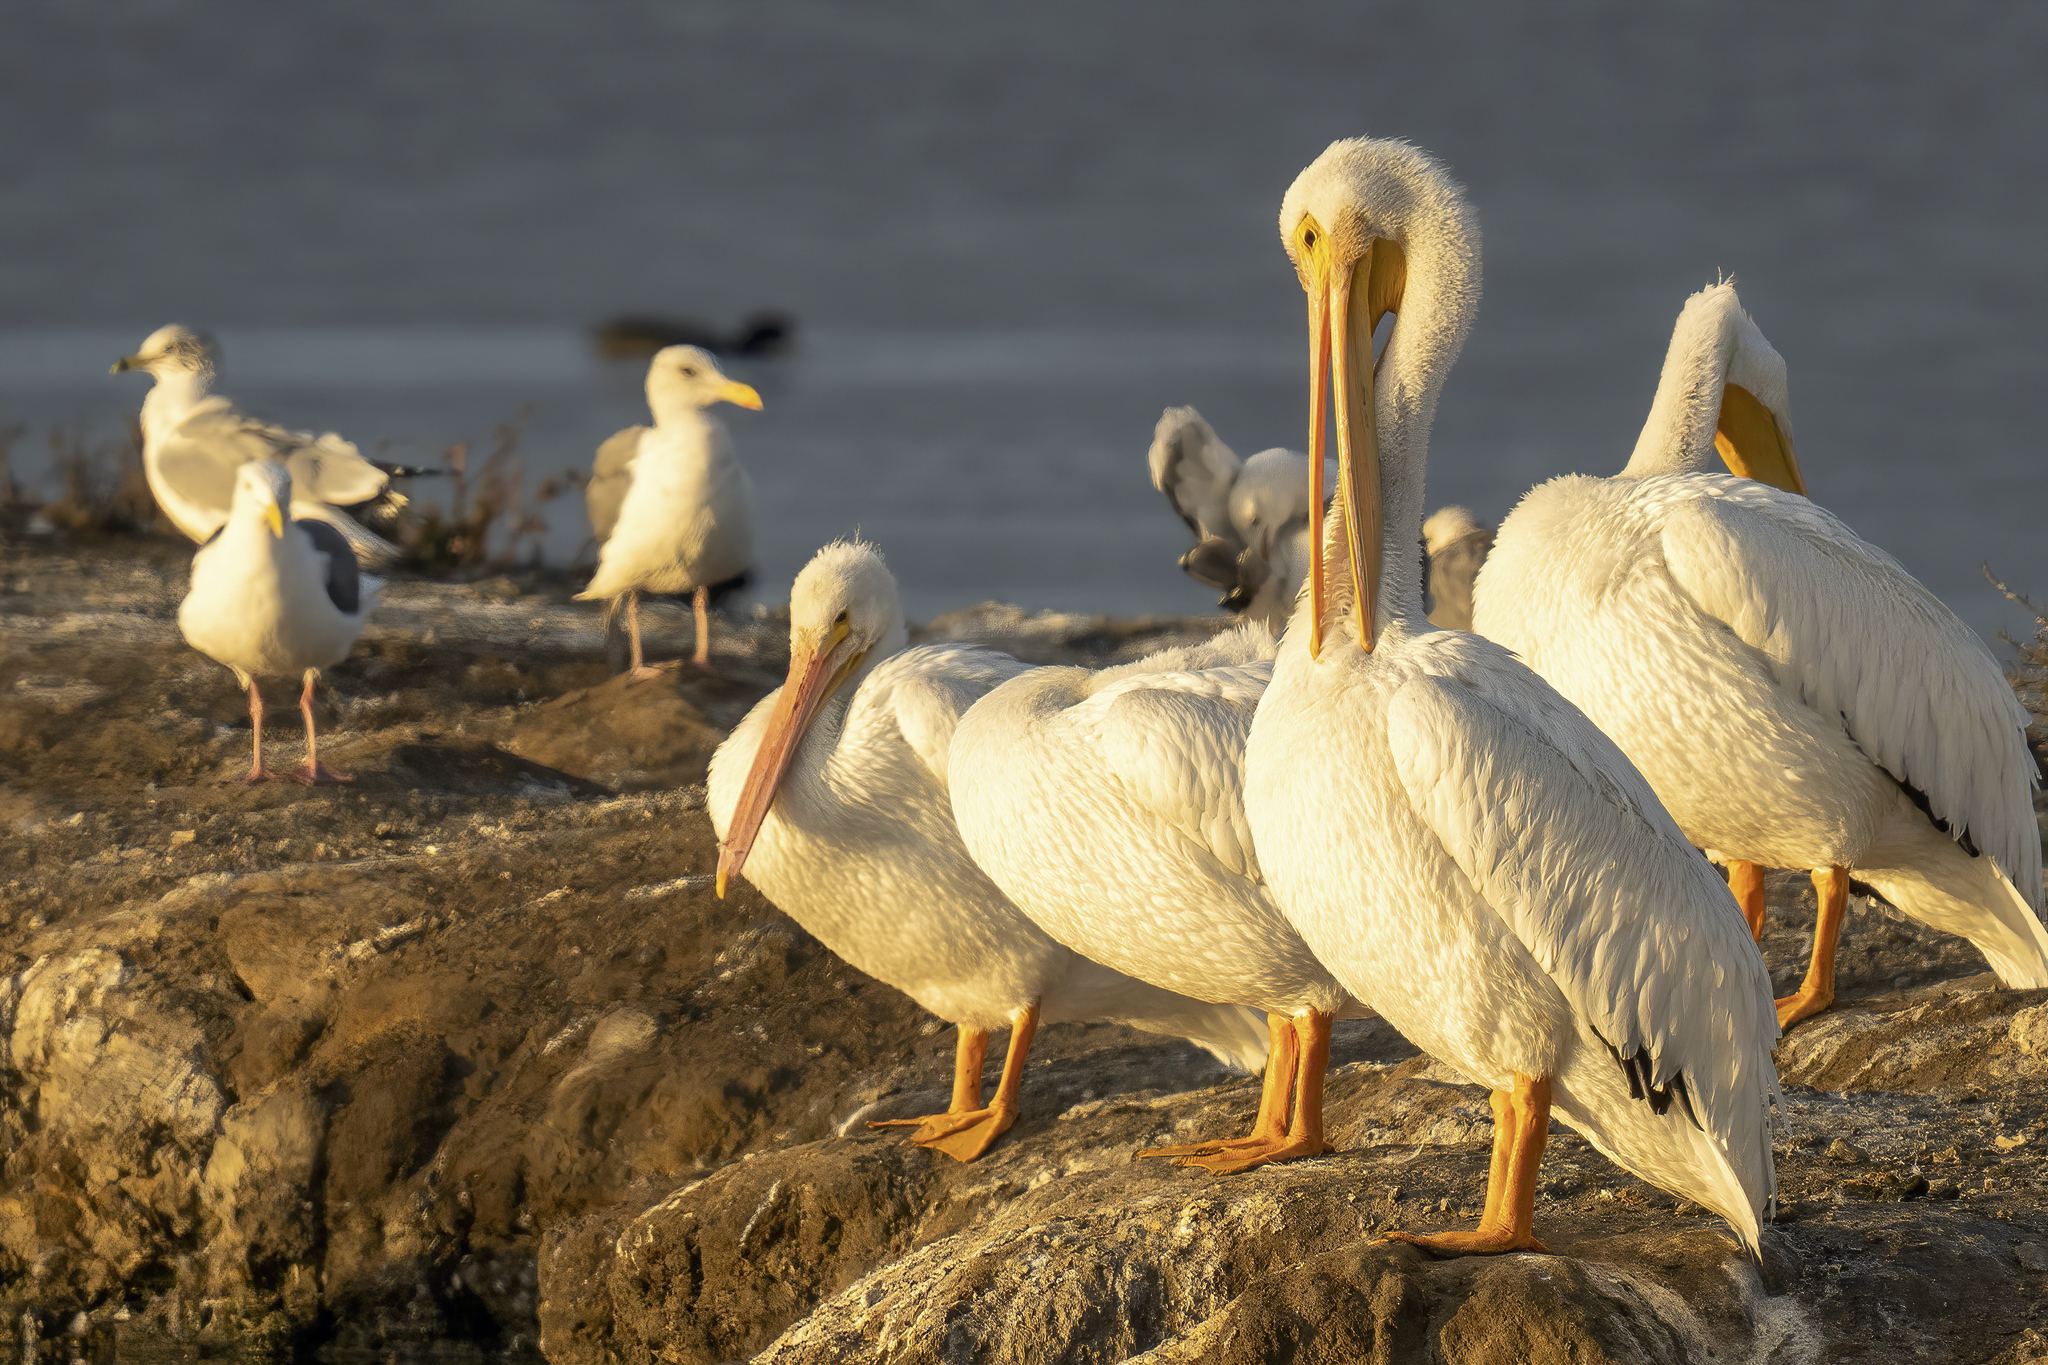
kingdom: Animalia
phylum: Chordata
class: Aves
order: Pelecaniformes
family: Pelecanidae
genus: Pelecanus
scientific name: Pelecanus erythrorhynchos
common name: American white pelican
